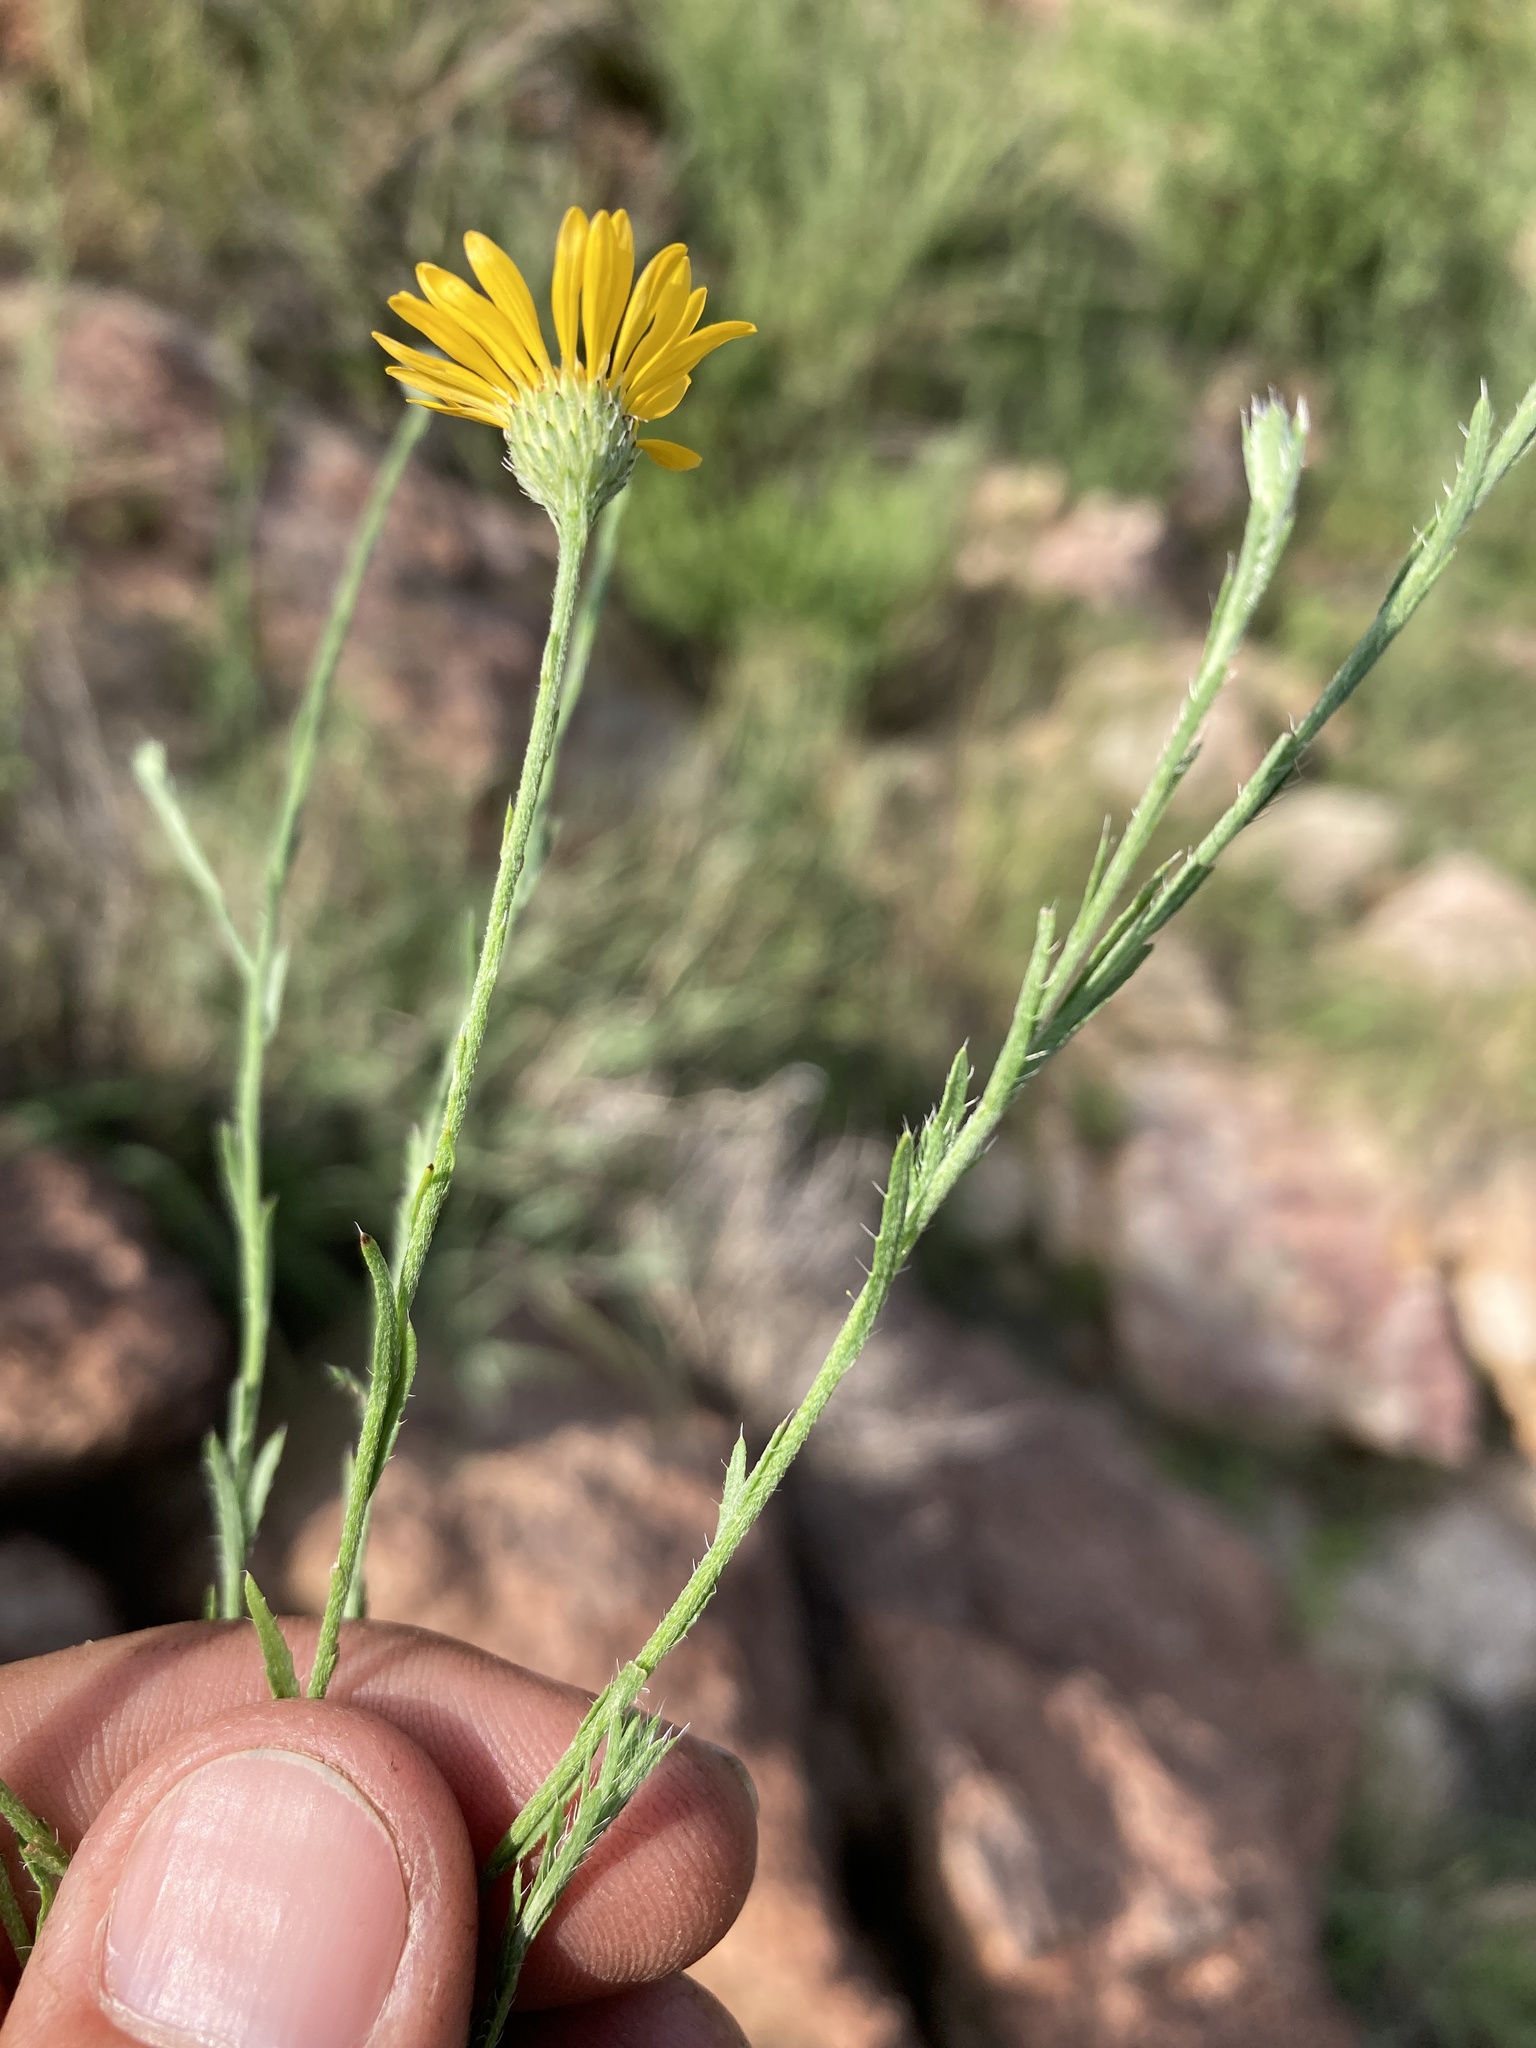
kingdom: Plantae
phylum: Tracheophyta
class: Magnoliopsida
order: Asterales
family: Asteraceae
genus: Xanthisma
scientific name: Xanthisma gracile
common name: Slender goldenweed
